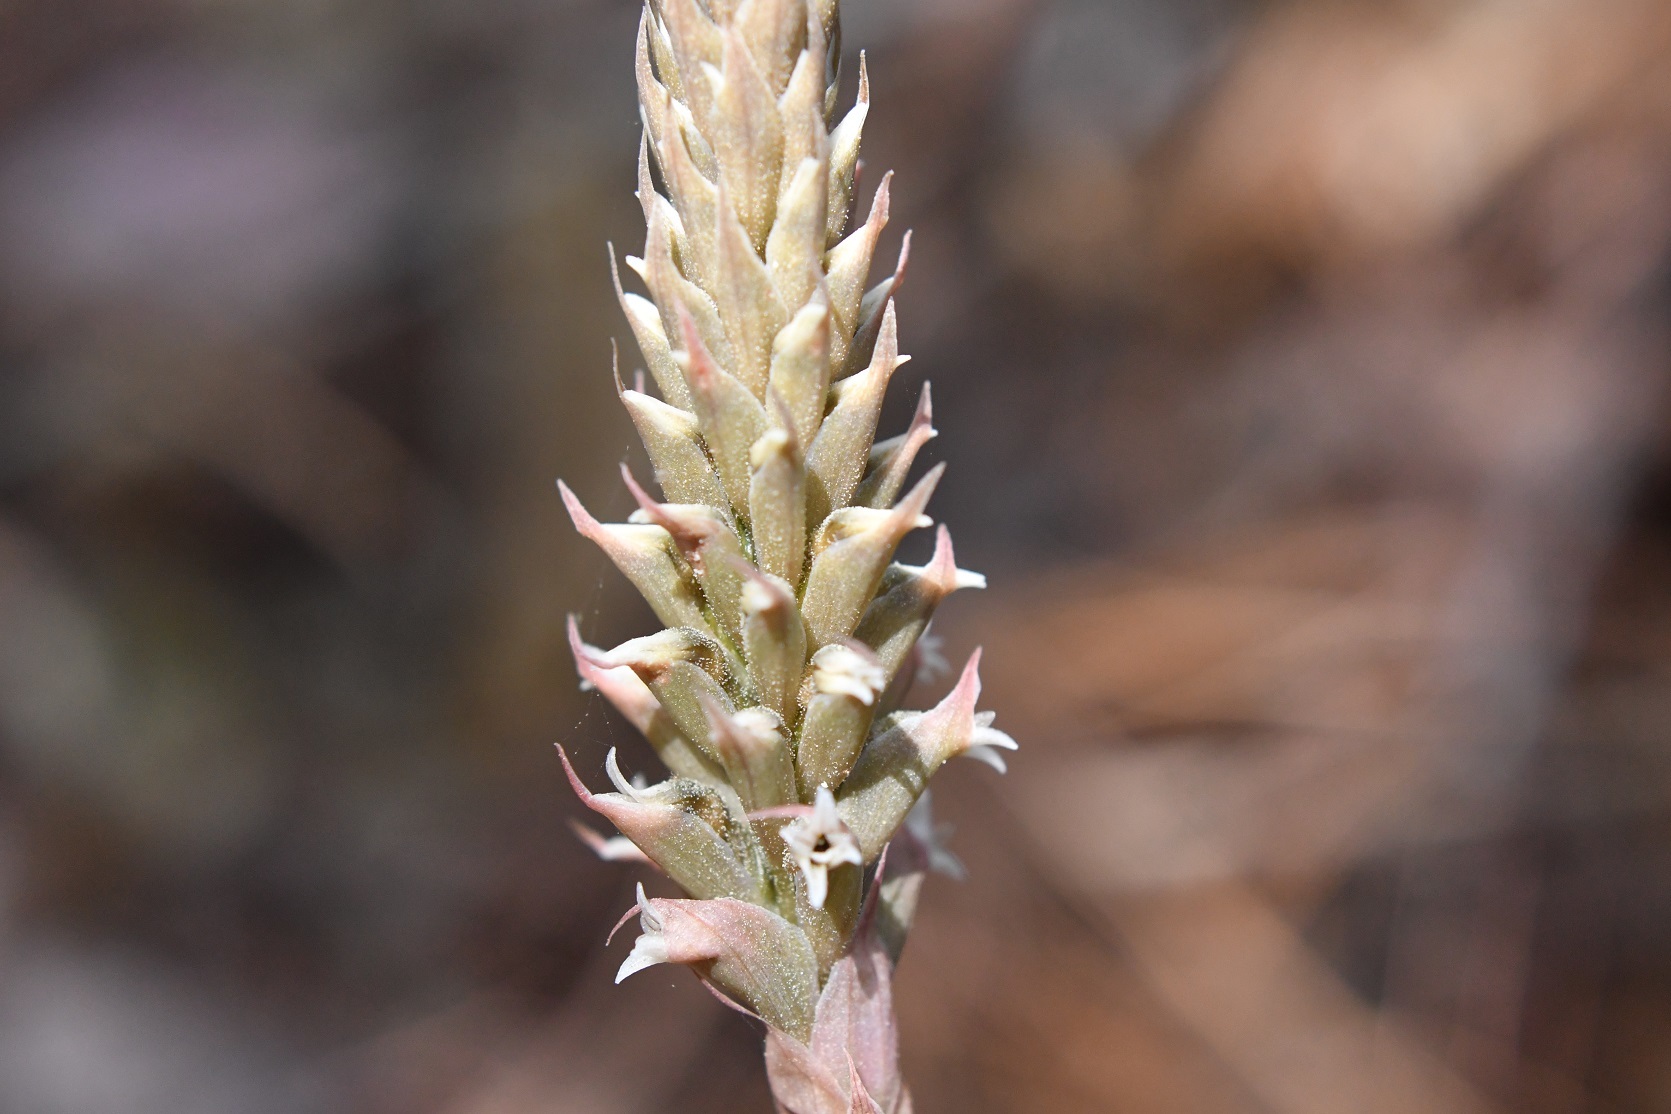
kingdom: Plantae
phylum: Tracheophyta
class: Liliopsida
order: Asparagales
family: Orchidaceae
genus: Aulosepalum
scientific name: Aulosepalum pyramidale
